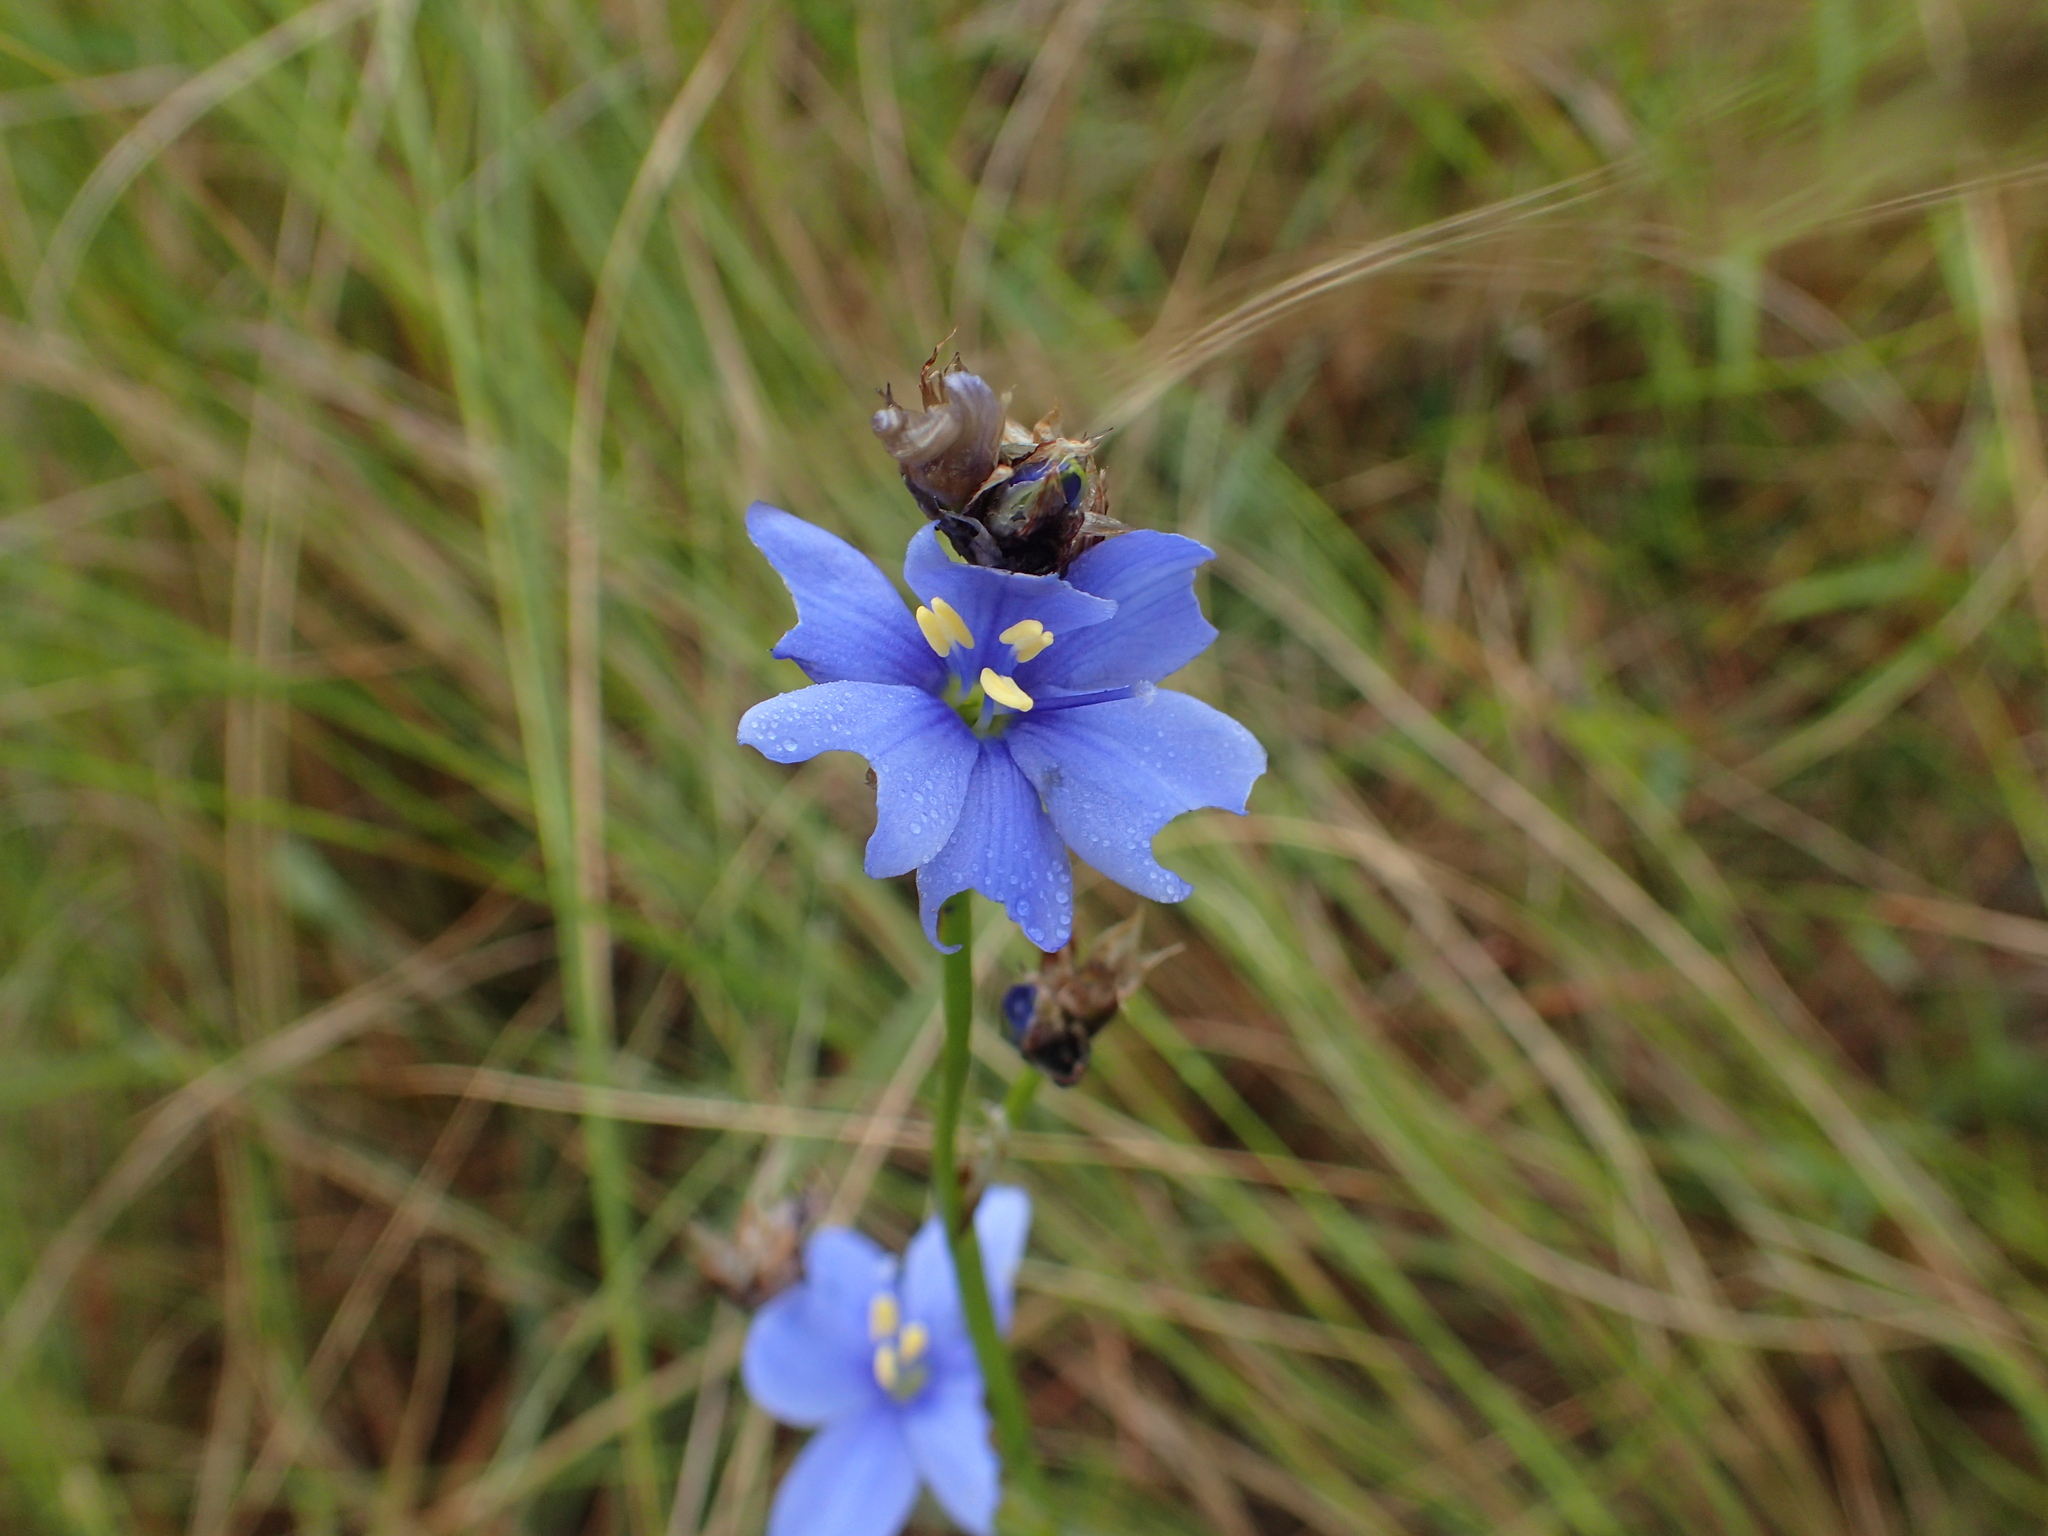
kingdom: Plantae
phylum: Tracheophyta
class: Liliopsida
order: Asparagales
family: Iridaceae
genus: Aristea
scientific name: Aristea torulosa
